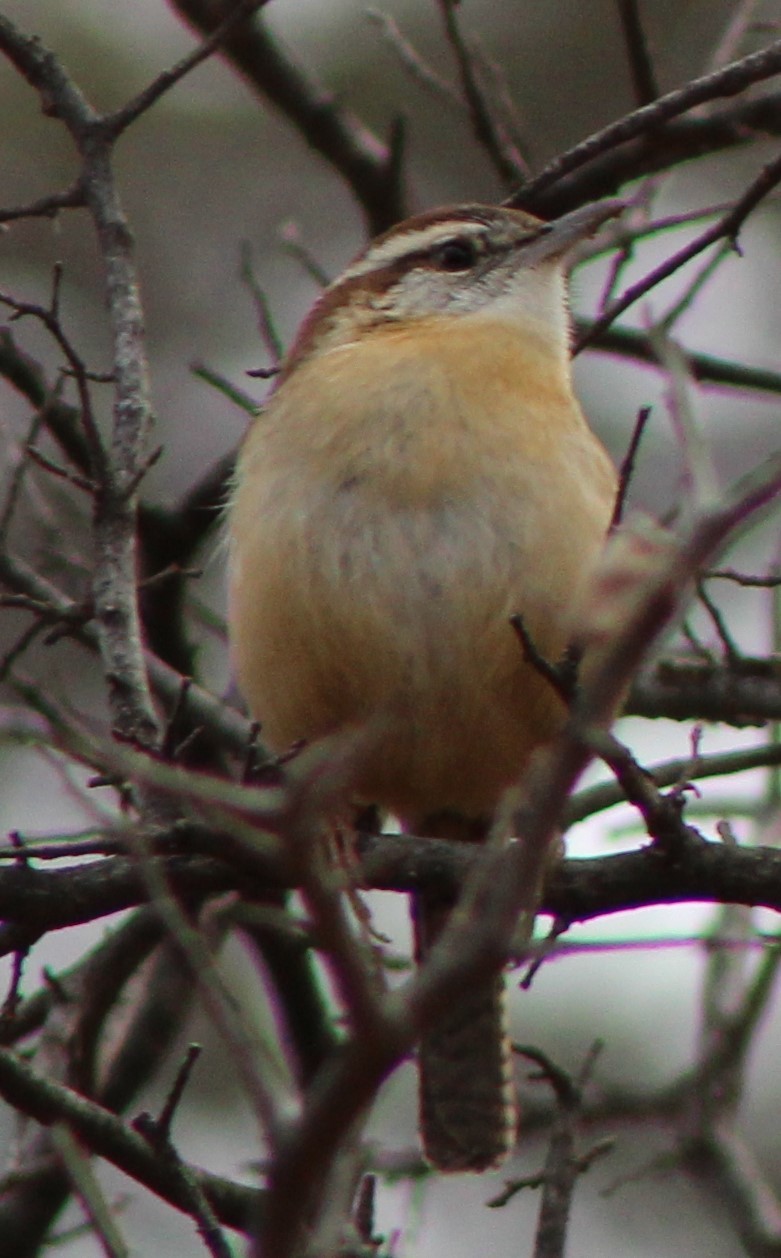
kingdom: Animalia
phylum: Chordata
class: Aves
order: Passeriformes
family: Troglodytidae
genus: Thryothorus
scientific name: Thryothorus ludovicianus
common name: Carolina wren
